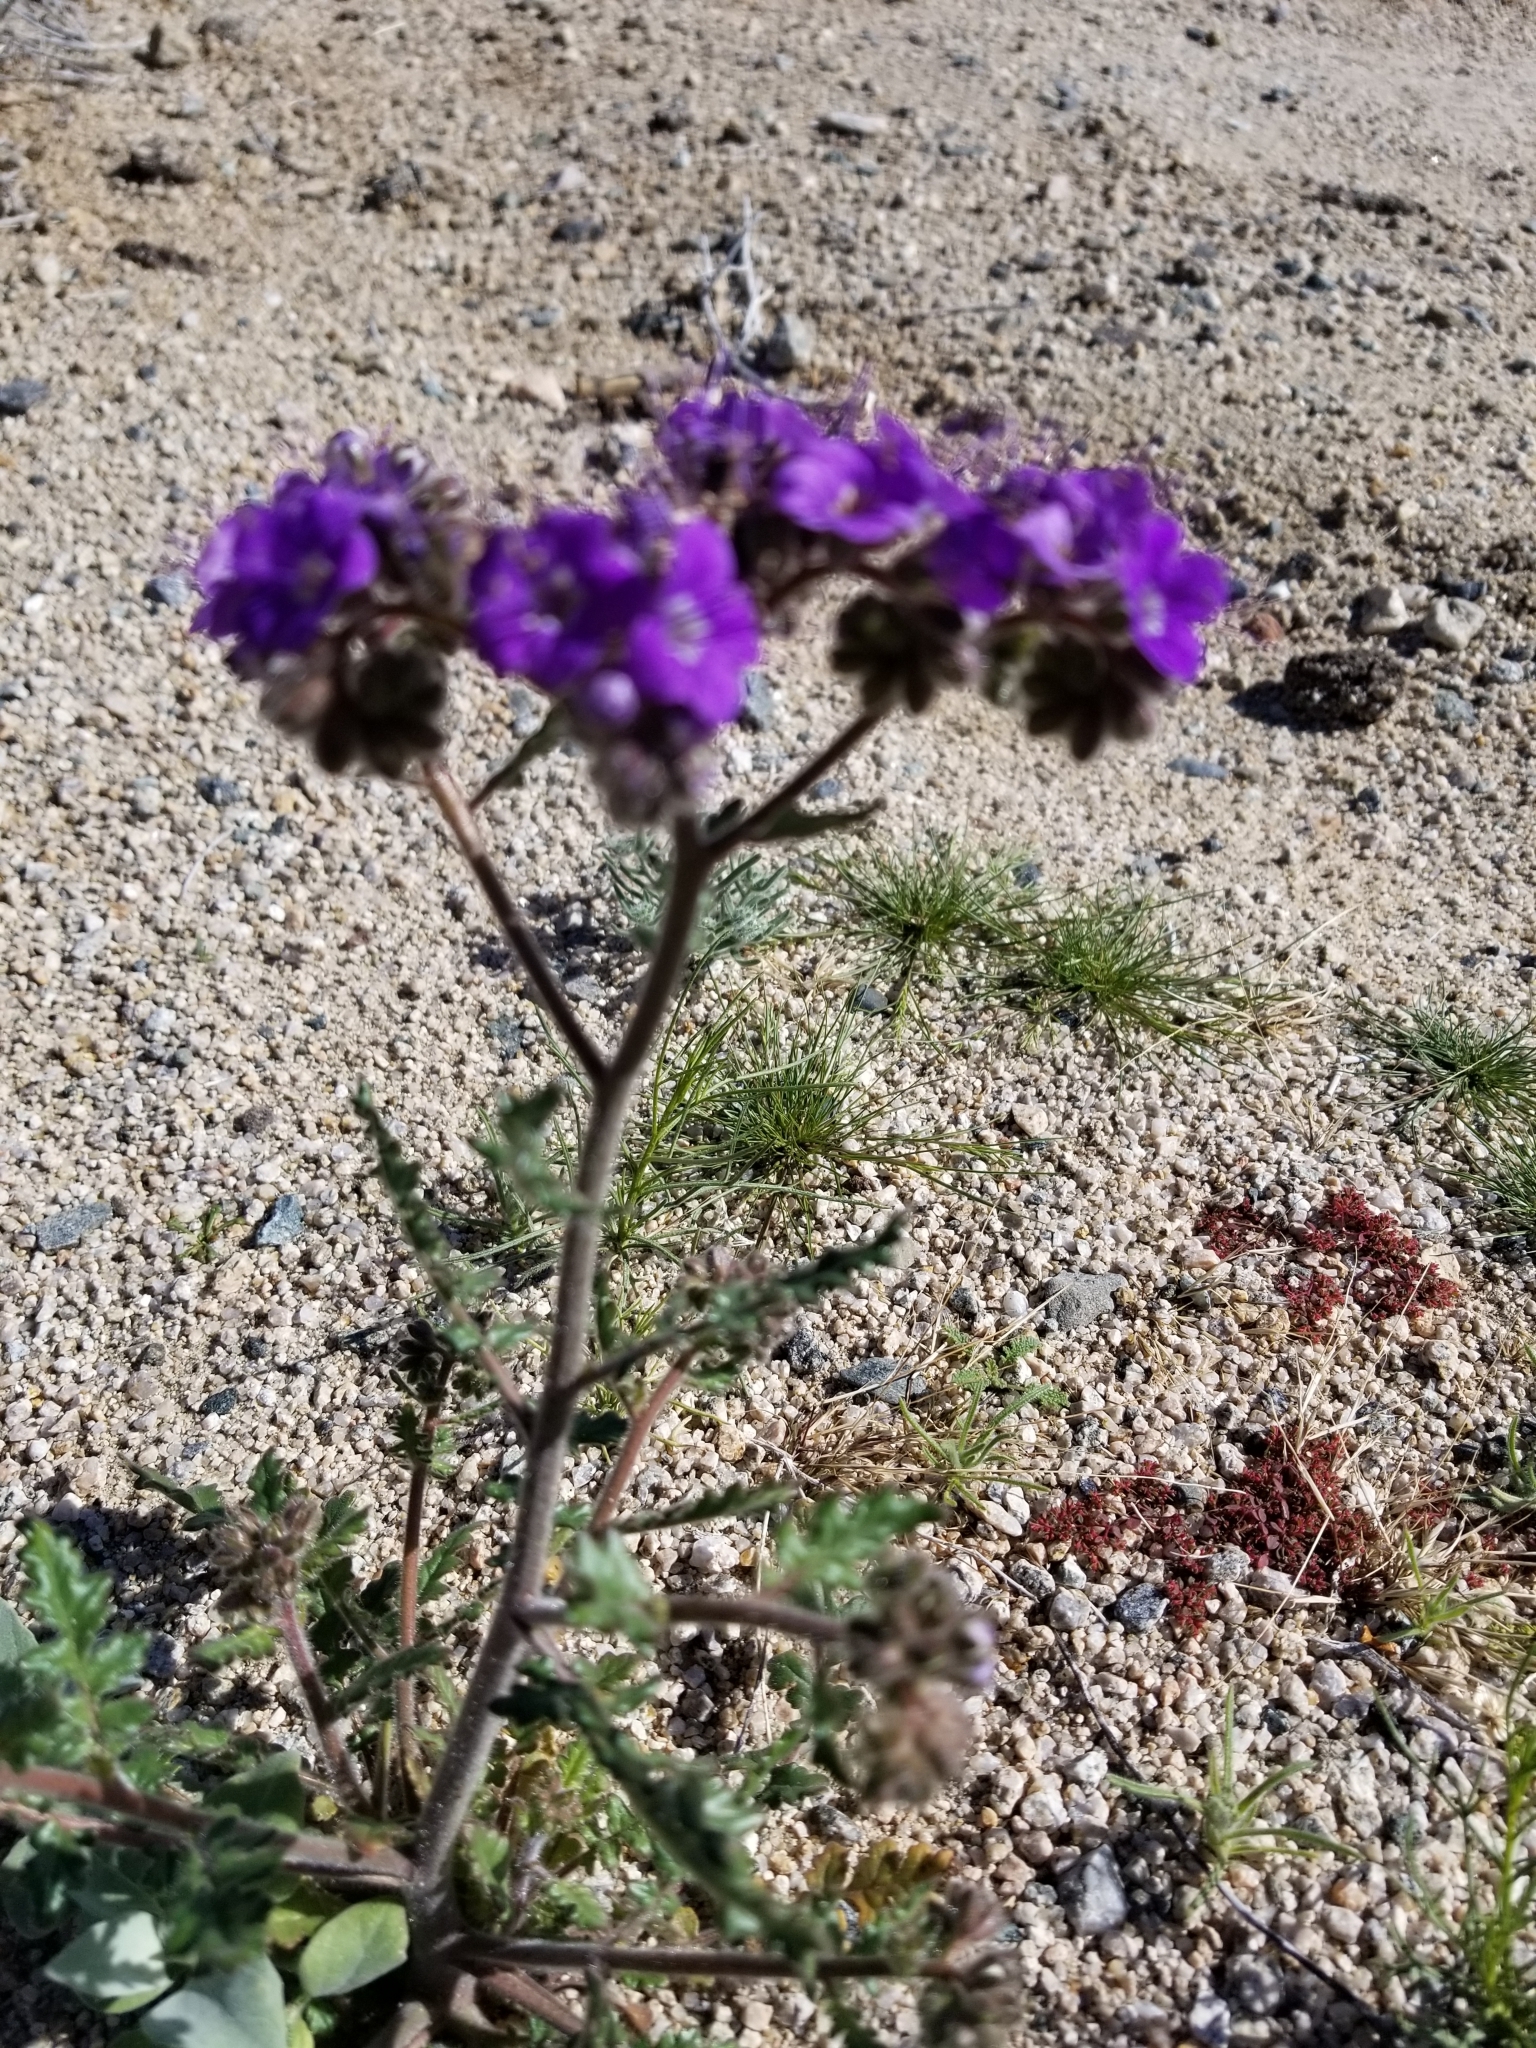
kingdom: Plantae
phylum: Tracheophyta
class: Magnoliopsida
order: Boraginales
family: Hydrophyllaceae
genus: Phacelia
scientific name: Phacelia crenulata
